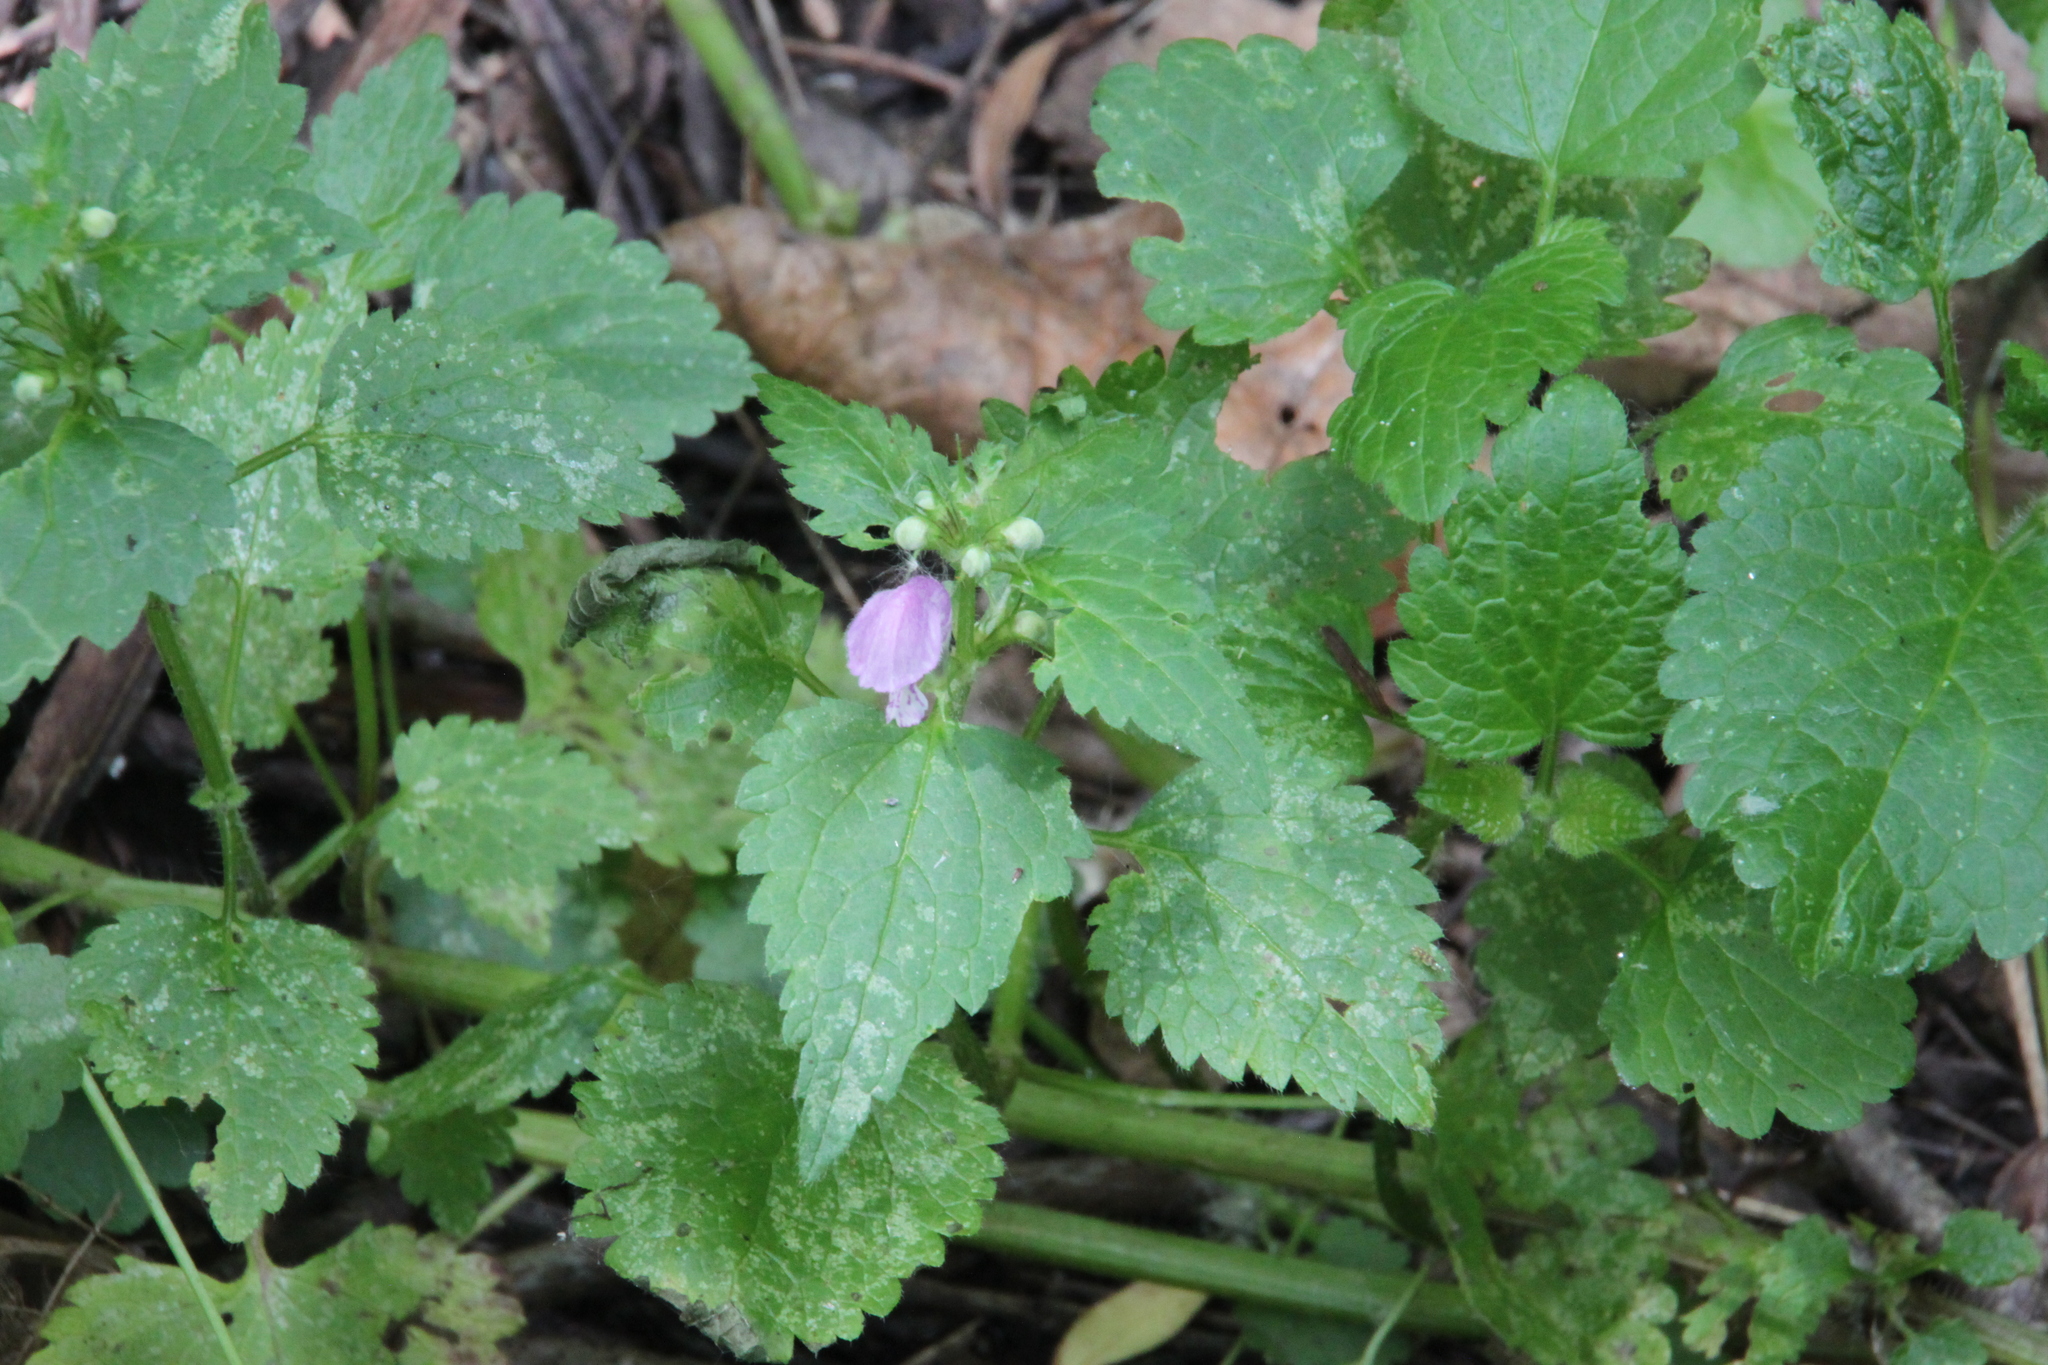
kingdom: Plantae
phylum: Tracheophyta
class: Magnoliopsida
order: Lamiales
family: Lamiaceae
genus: Lamium
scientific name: Lamium maculatum
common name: Spotted dead-nettle
